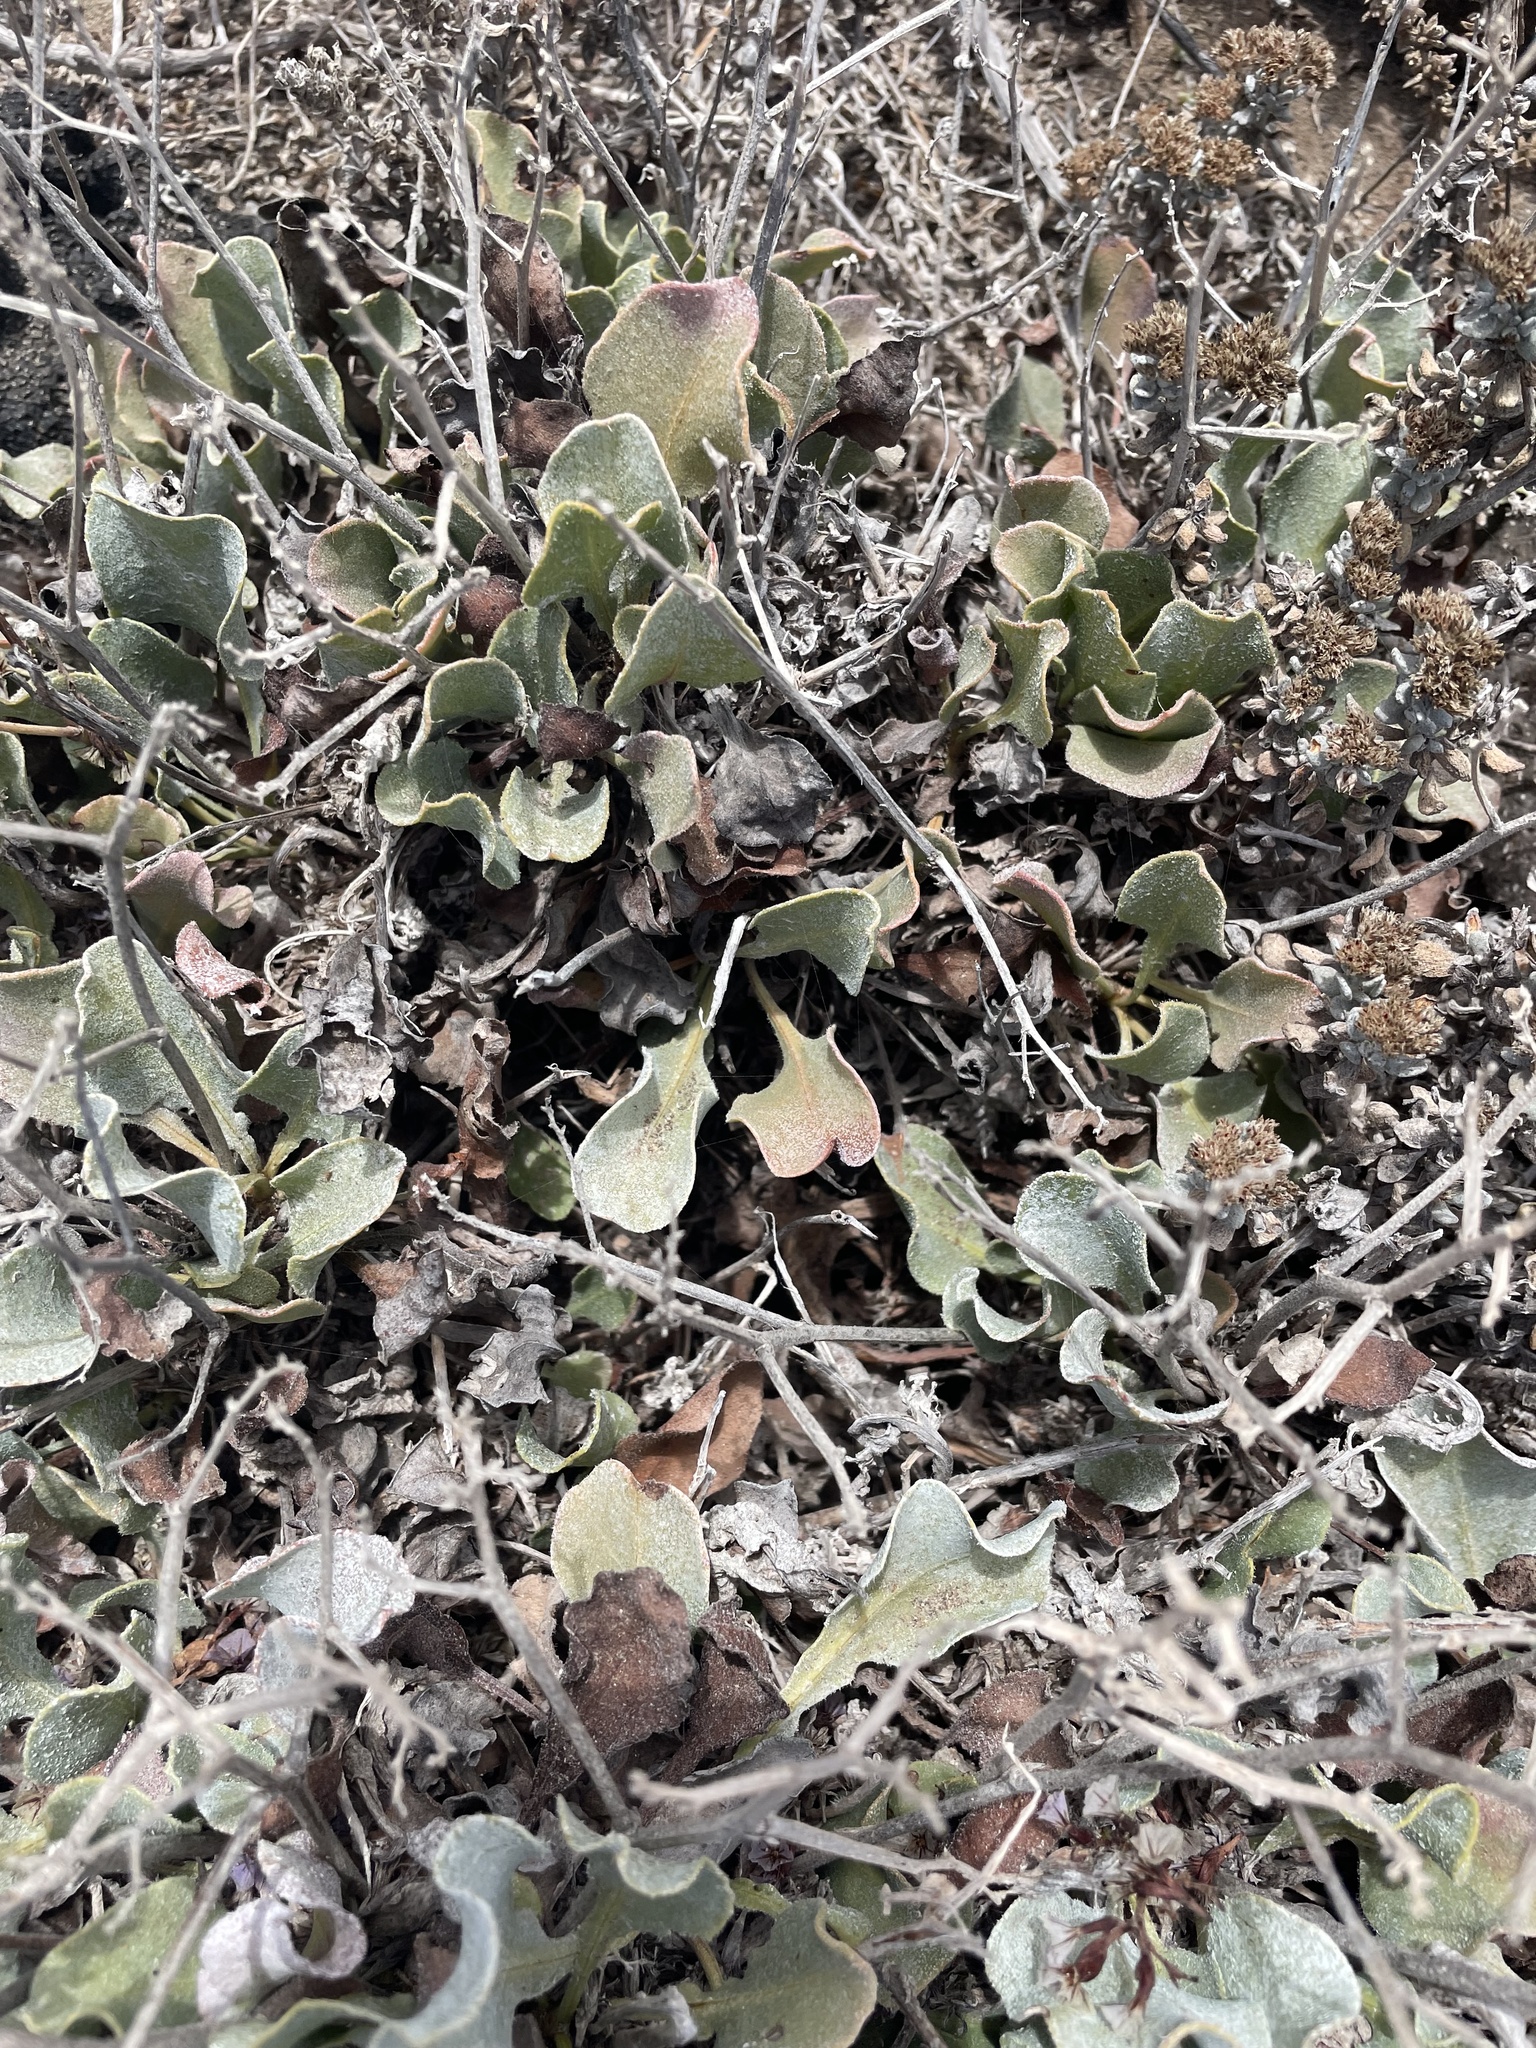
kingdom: Plantae
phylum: Tracheophyta
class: Magnoliopsida
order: Caryophyllales
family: Plumbaginaceae
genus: Limonium
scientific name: Limonium puberulum
